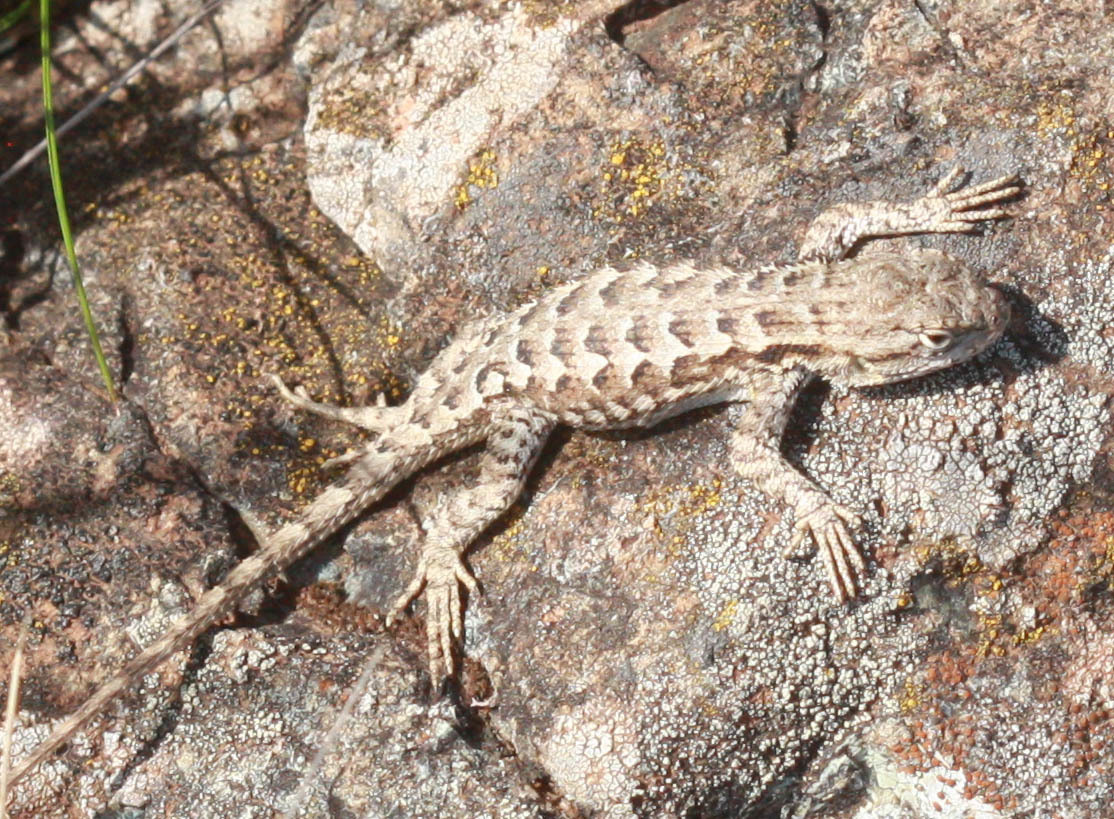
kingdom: Animalia
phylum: Chordata
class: Squamata
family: Phrynosomatidae
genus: Sceloporus
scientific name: Sceloporus occidentalis
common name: Western fence lizard
